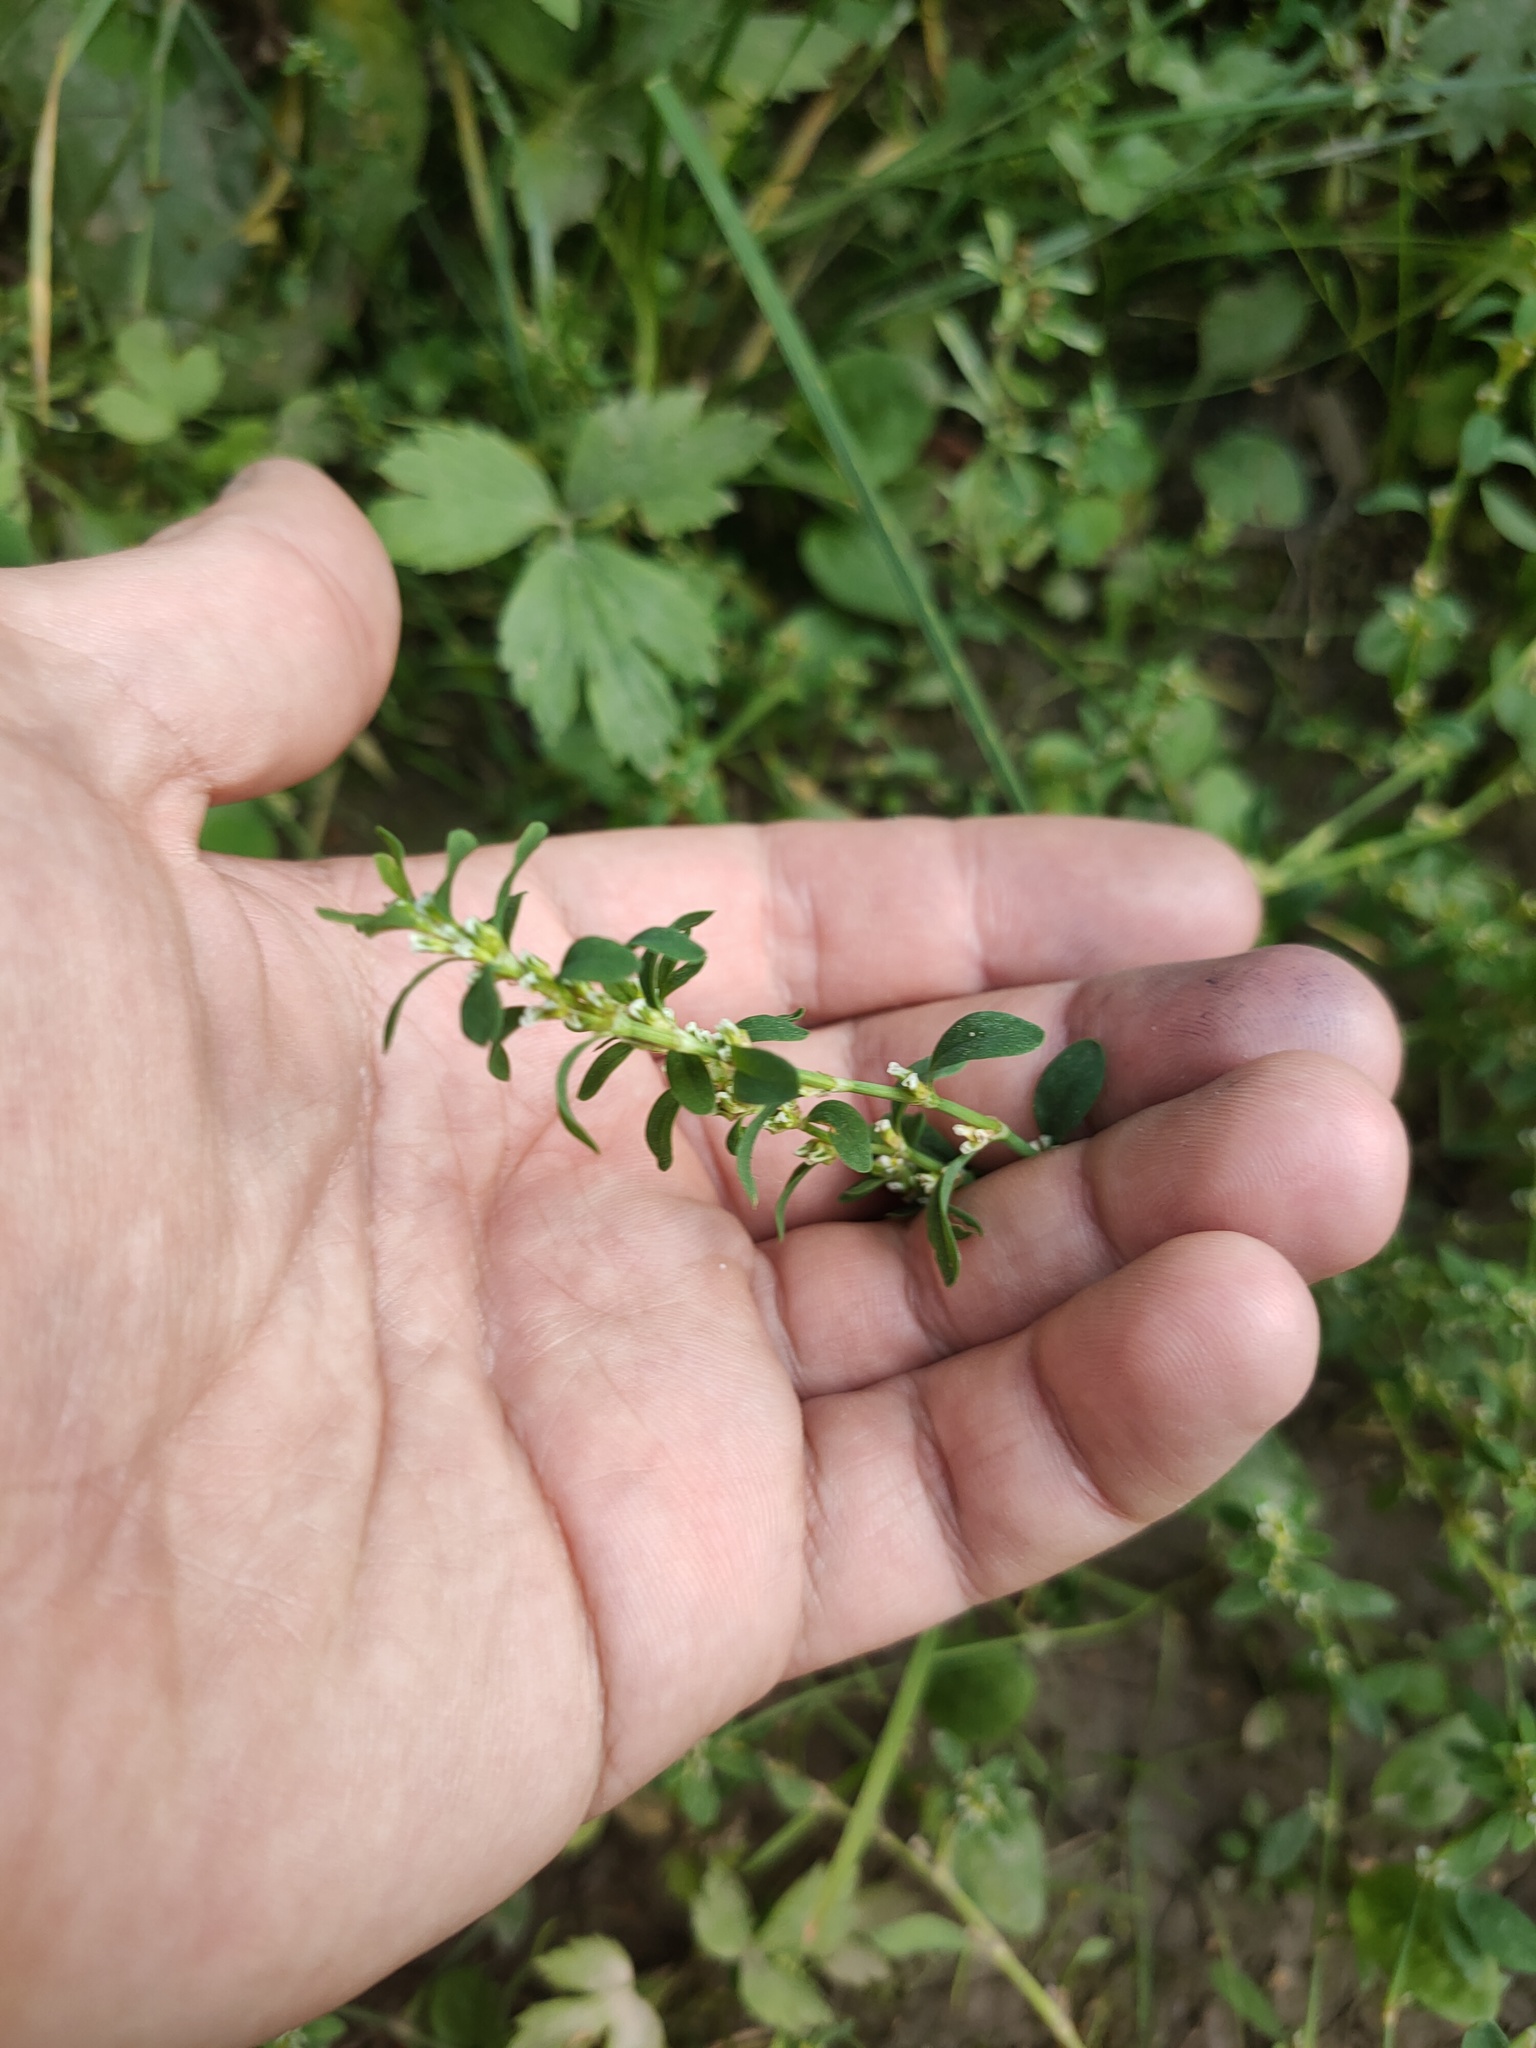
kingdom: Plantae
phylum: Tracheophyta
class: Magnoliopsida
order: Caryophyllales
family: Polygonaceae
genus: Polygonum
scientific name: Polygonum
